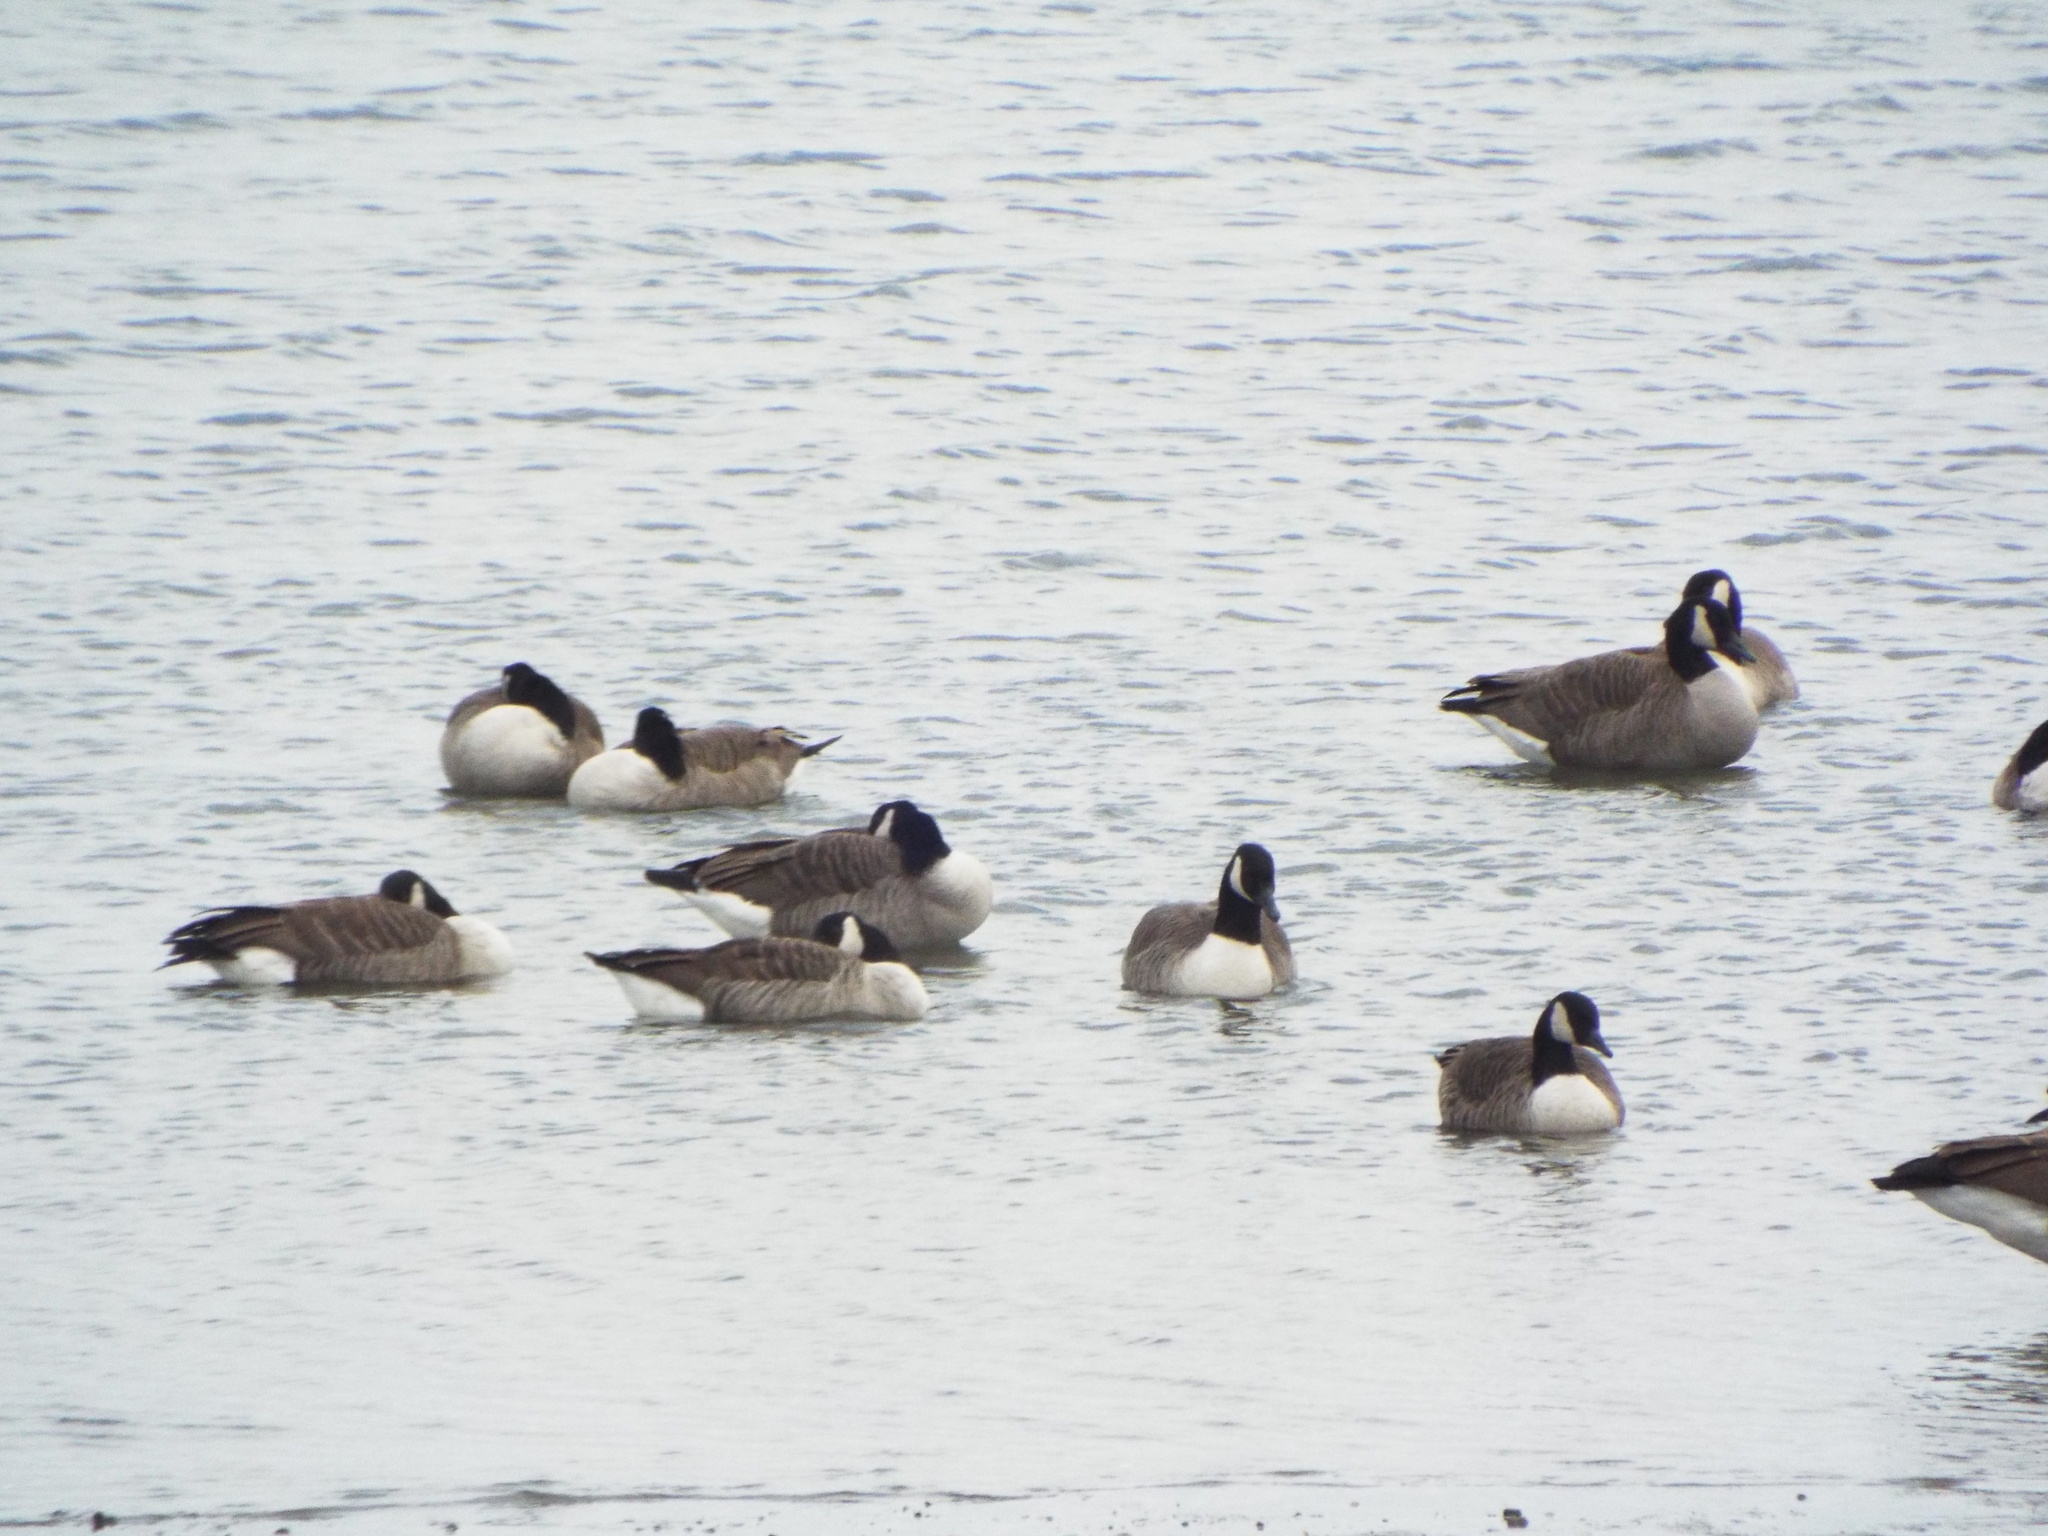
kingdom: Animalia
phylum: Chordata
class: Aves
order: Anseriformes
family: Anatidae
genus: Branta
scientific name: Branta canadensis
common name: Canada goose
